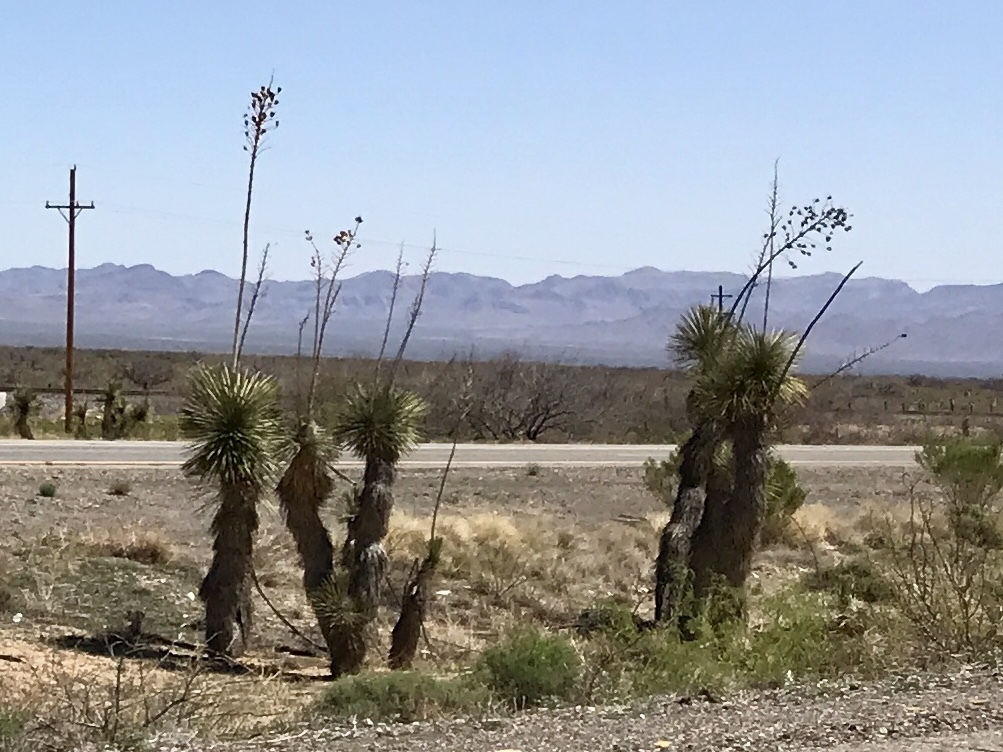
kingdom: Plantae
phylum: Tracheophyta
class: Liliopsida
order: Asparagales
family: Asparagaceae
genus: Yucca
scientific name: Yucca elata
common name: Palmella
